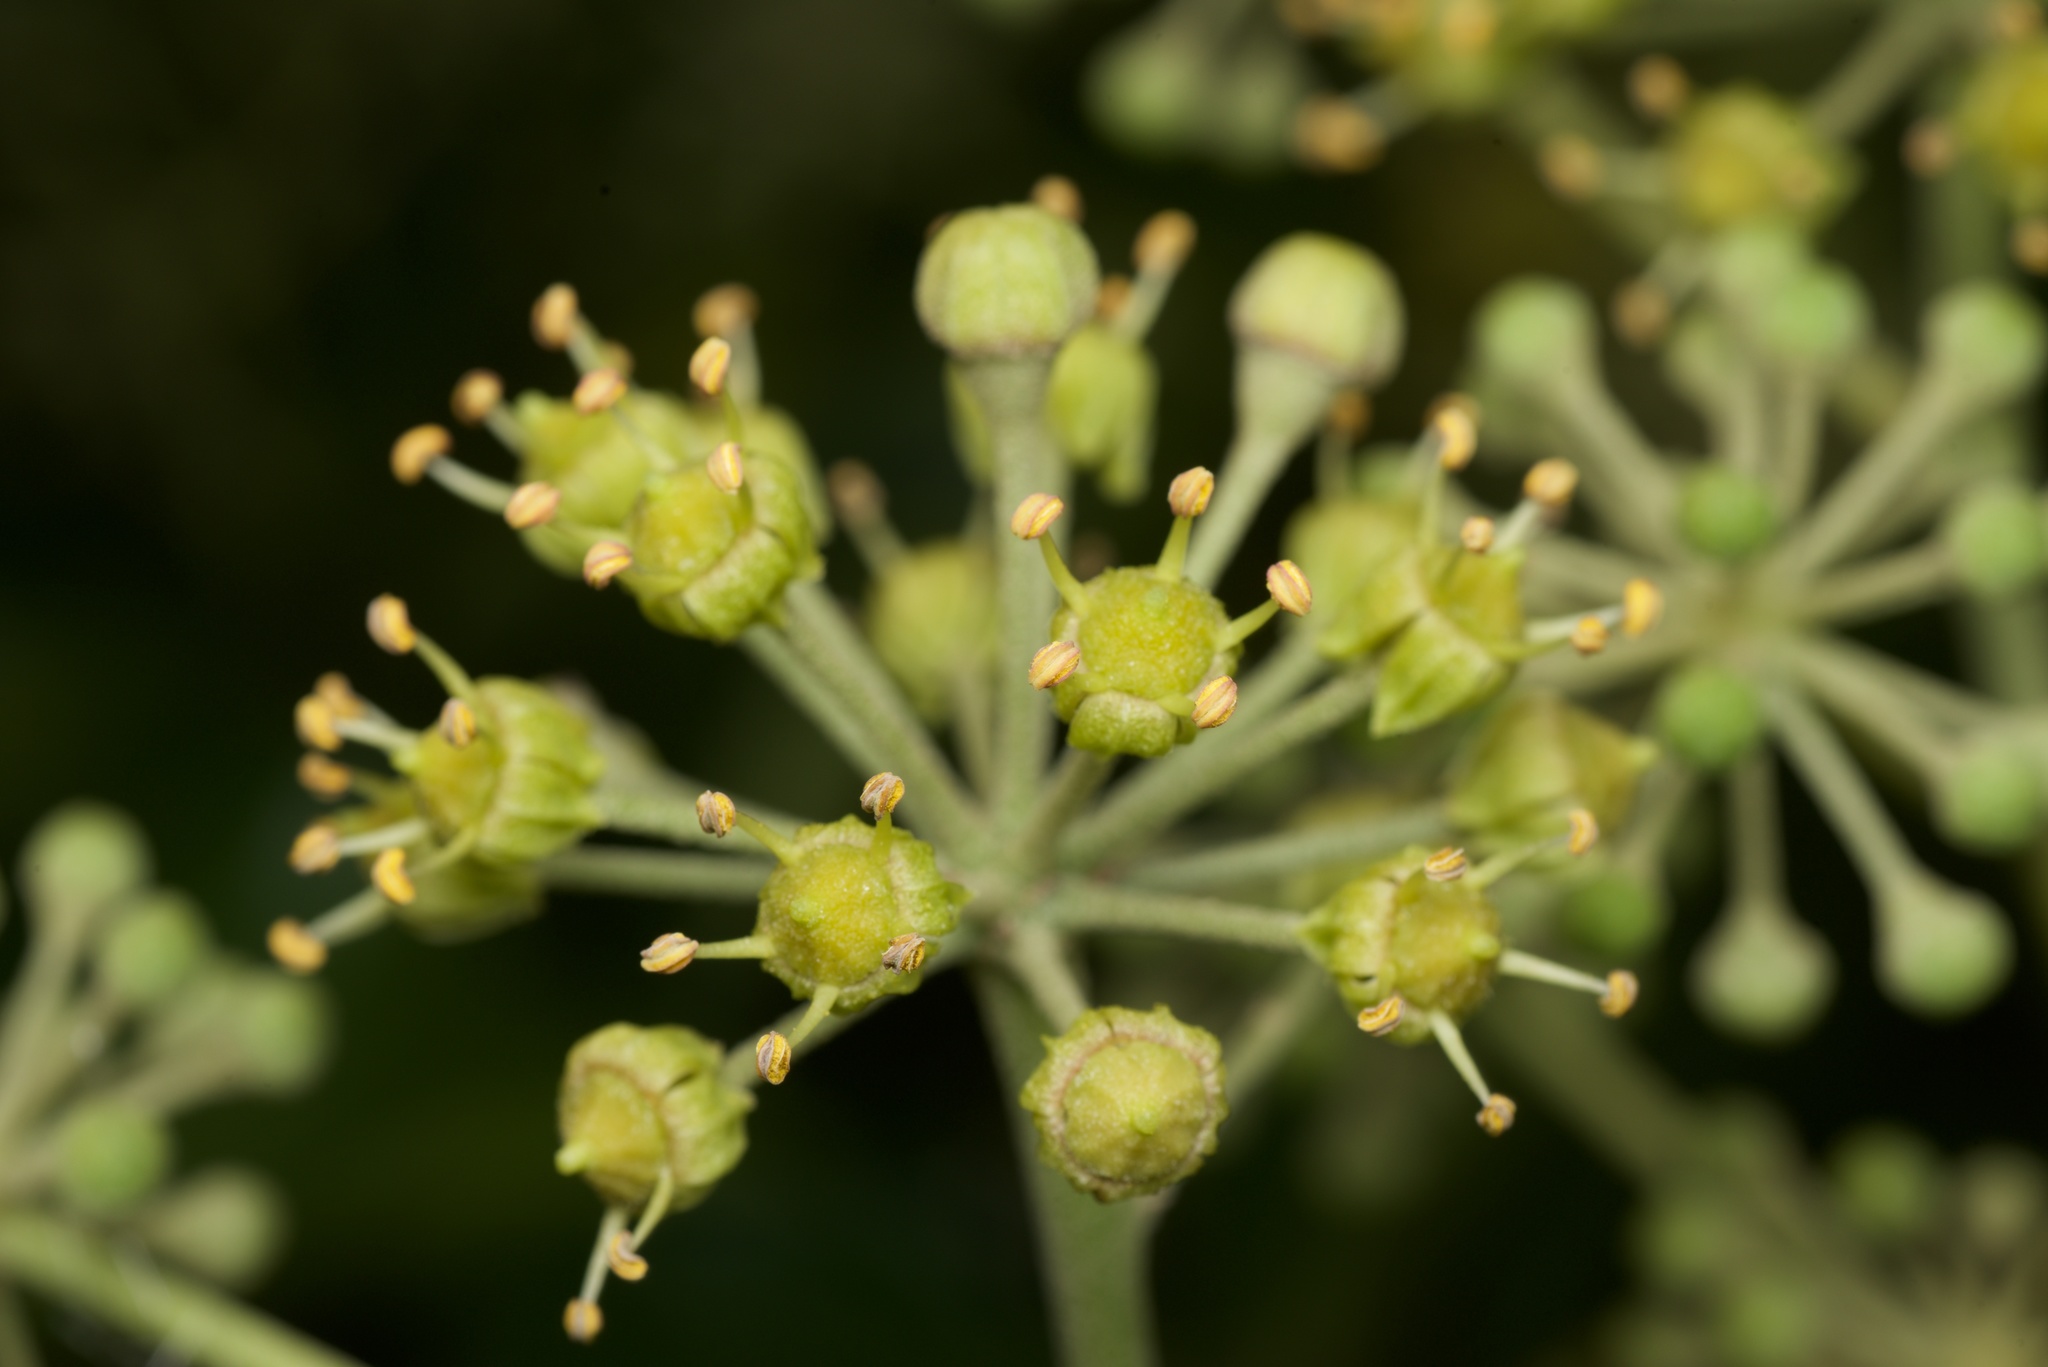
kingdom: Plantae
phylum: Tracheophyta
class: Magnoliopsida
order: Apiales
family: Araliaceae
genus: Hedera
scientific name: Hedera helix
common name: Ivy
